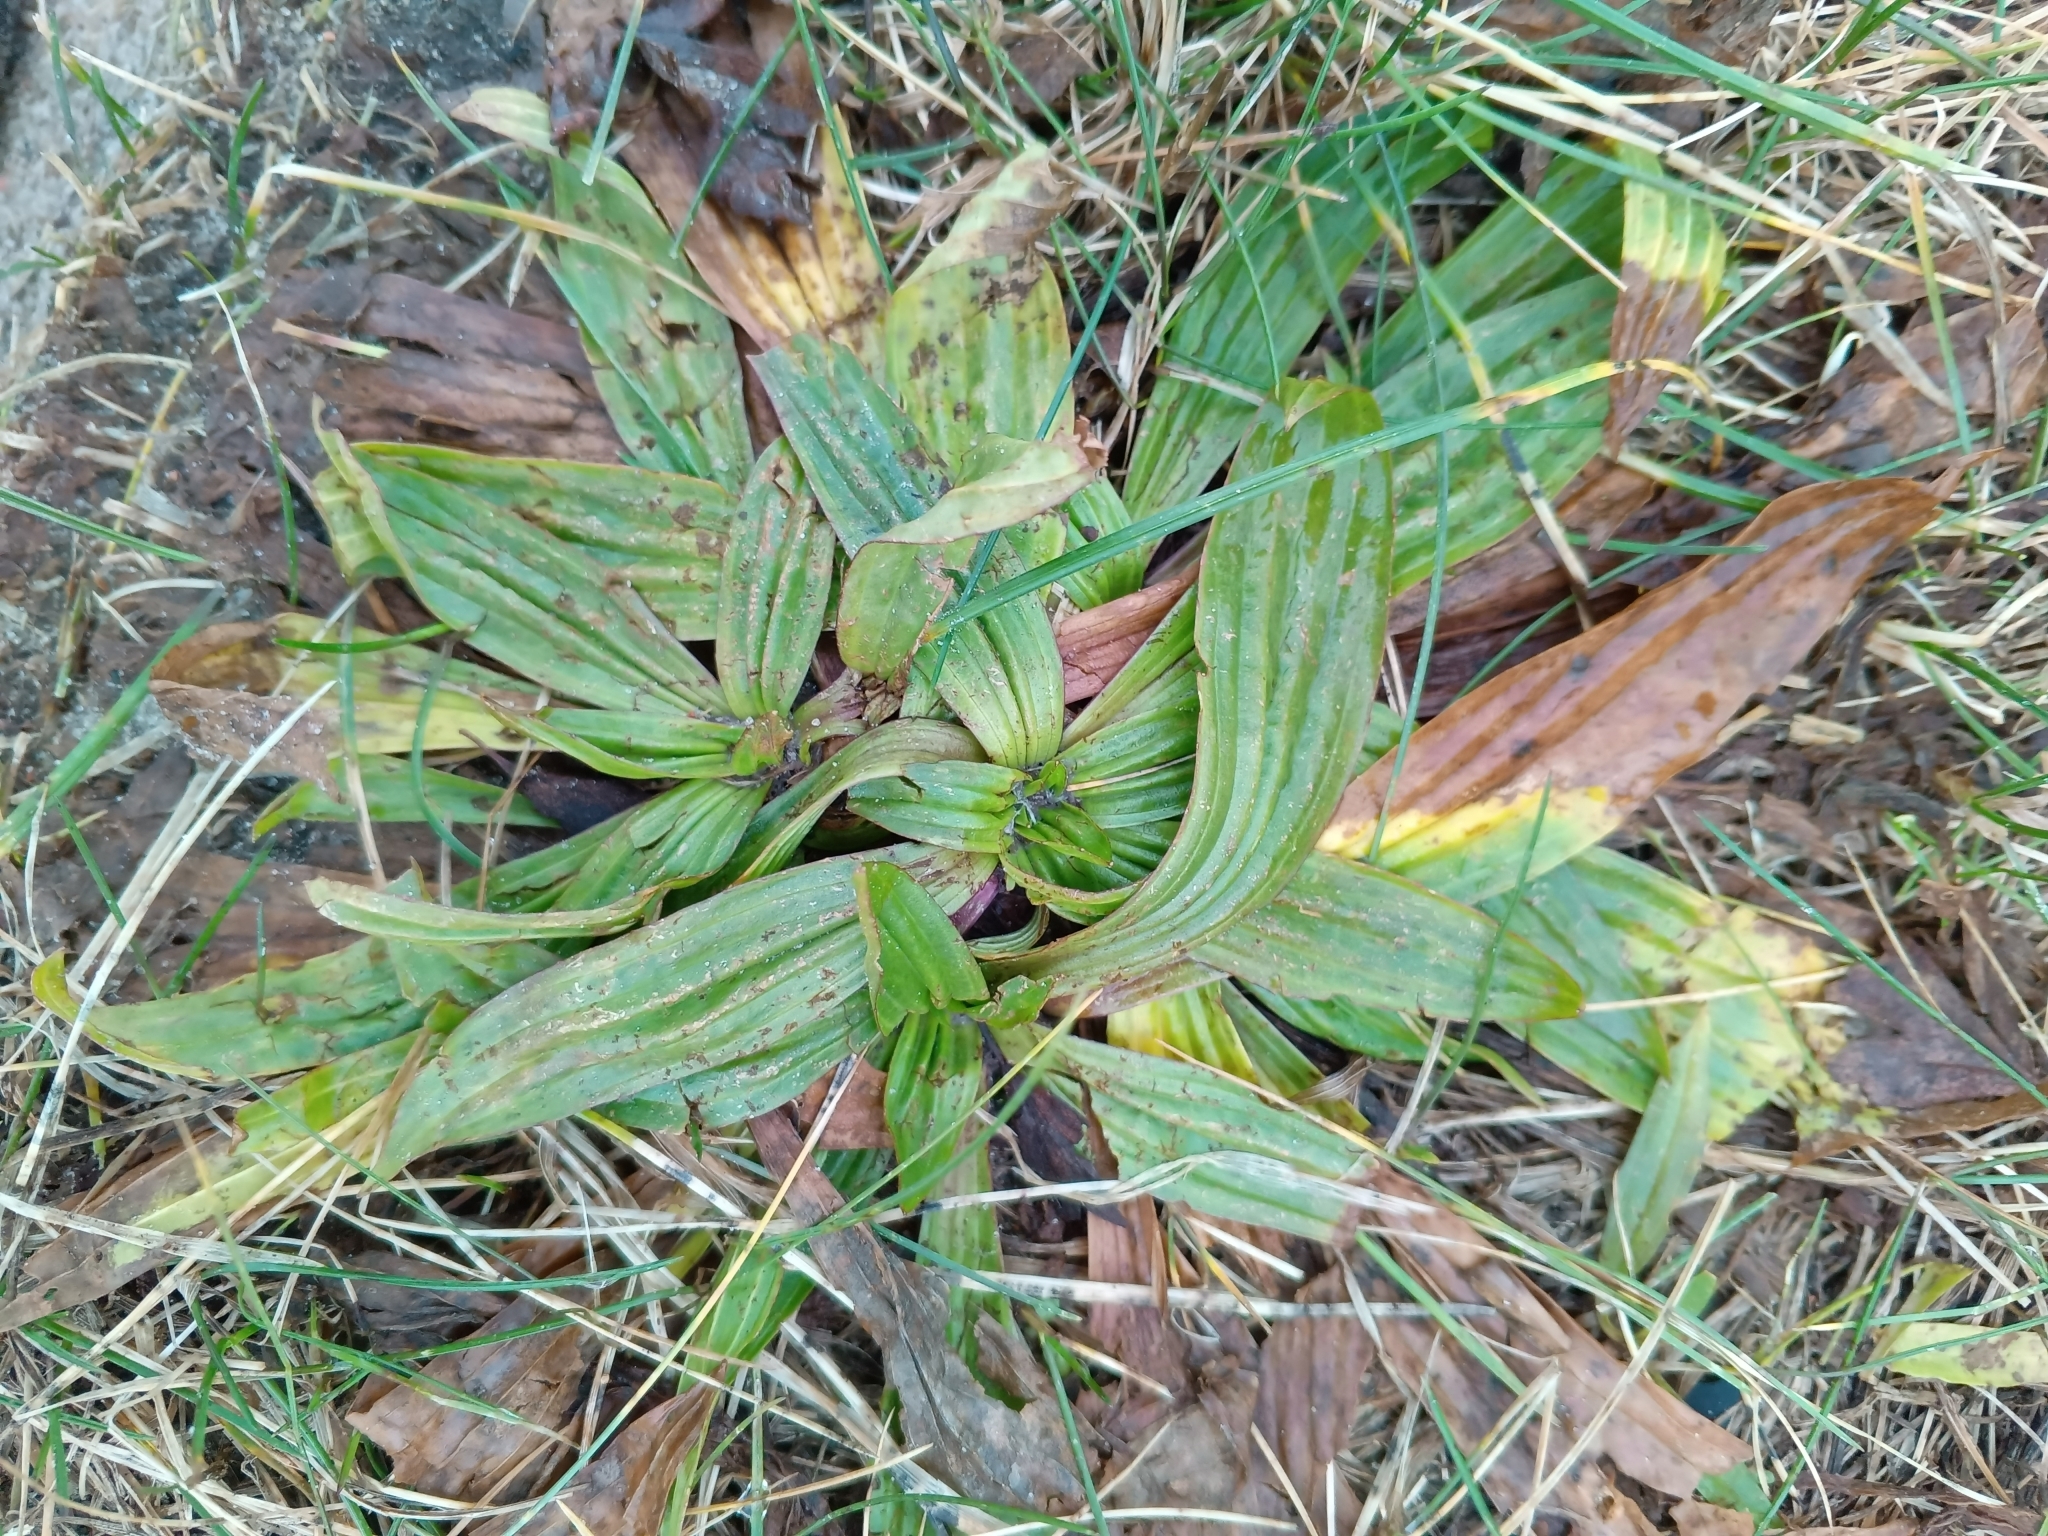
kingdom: Plantae
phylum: Tracheophyta
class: Magnoliopsida
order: Lamiales
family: Plantaginaceae
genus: Plantago
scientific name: Plantago lanceolata
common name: Ribwort plantain
